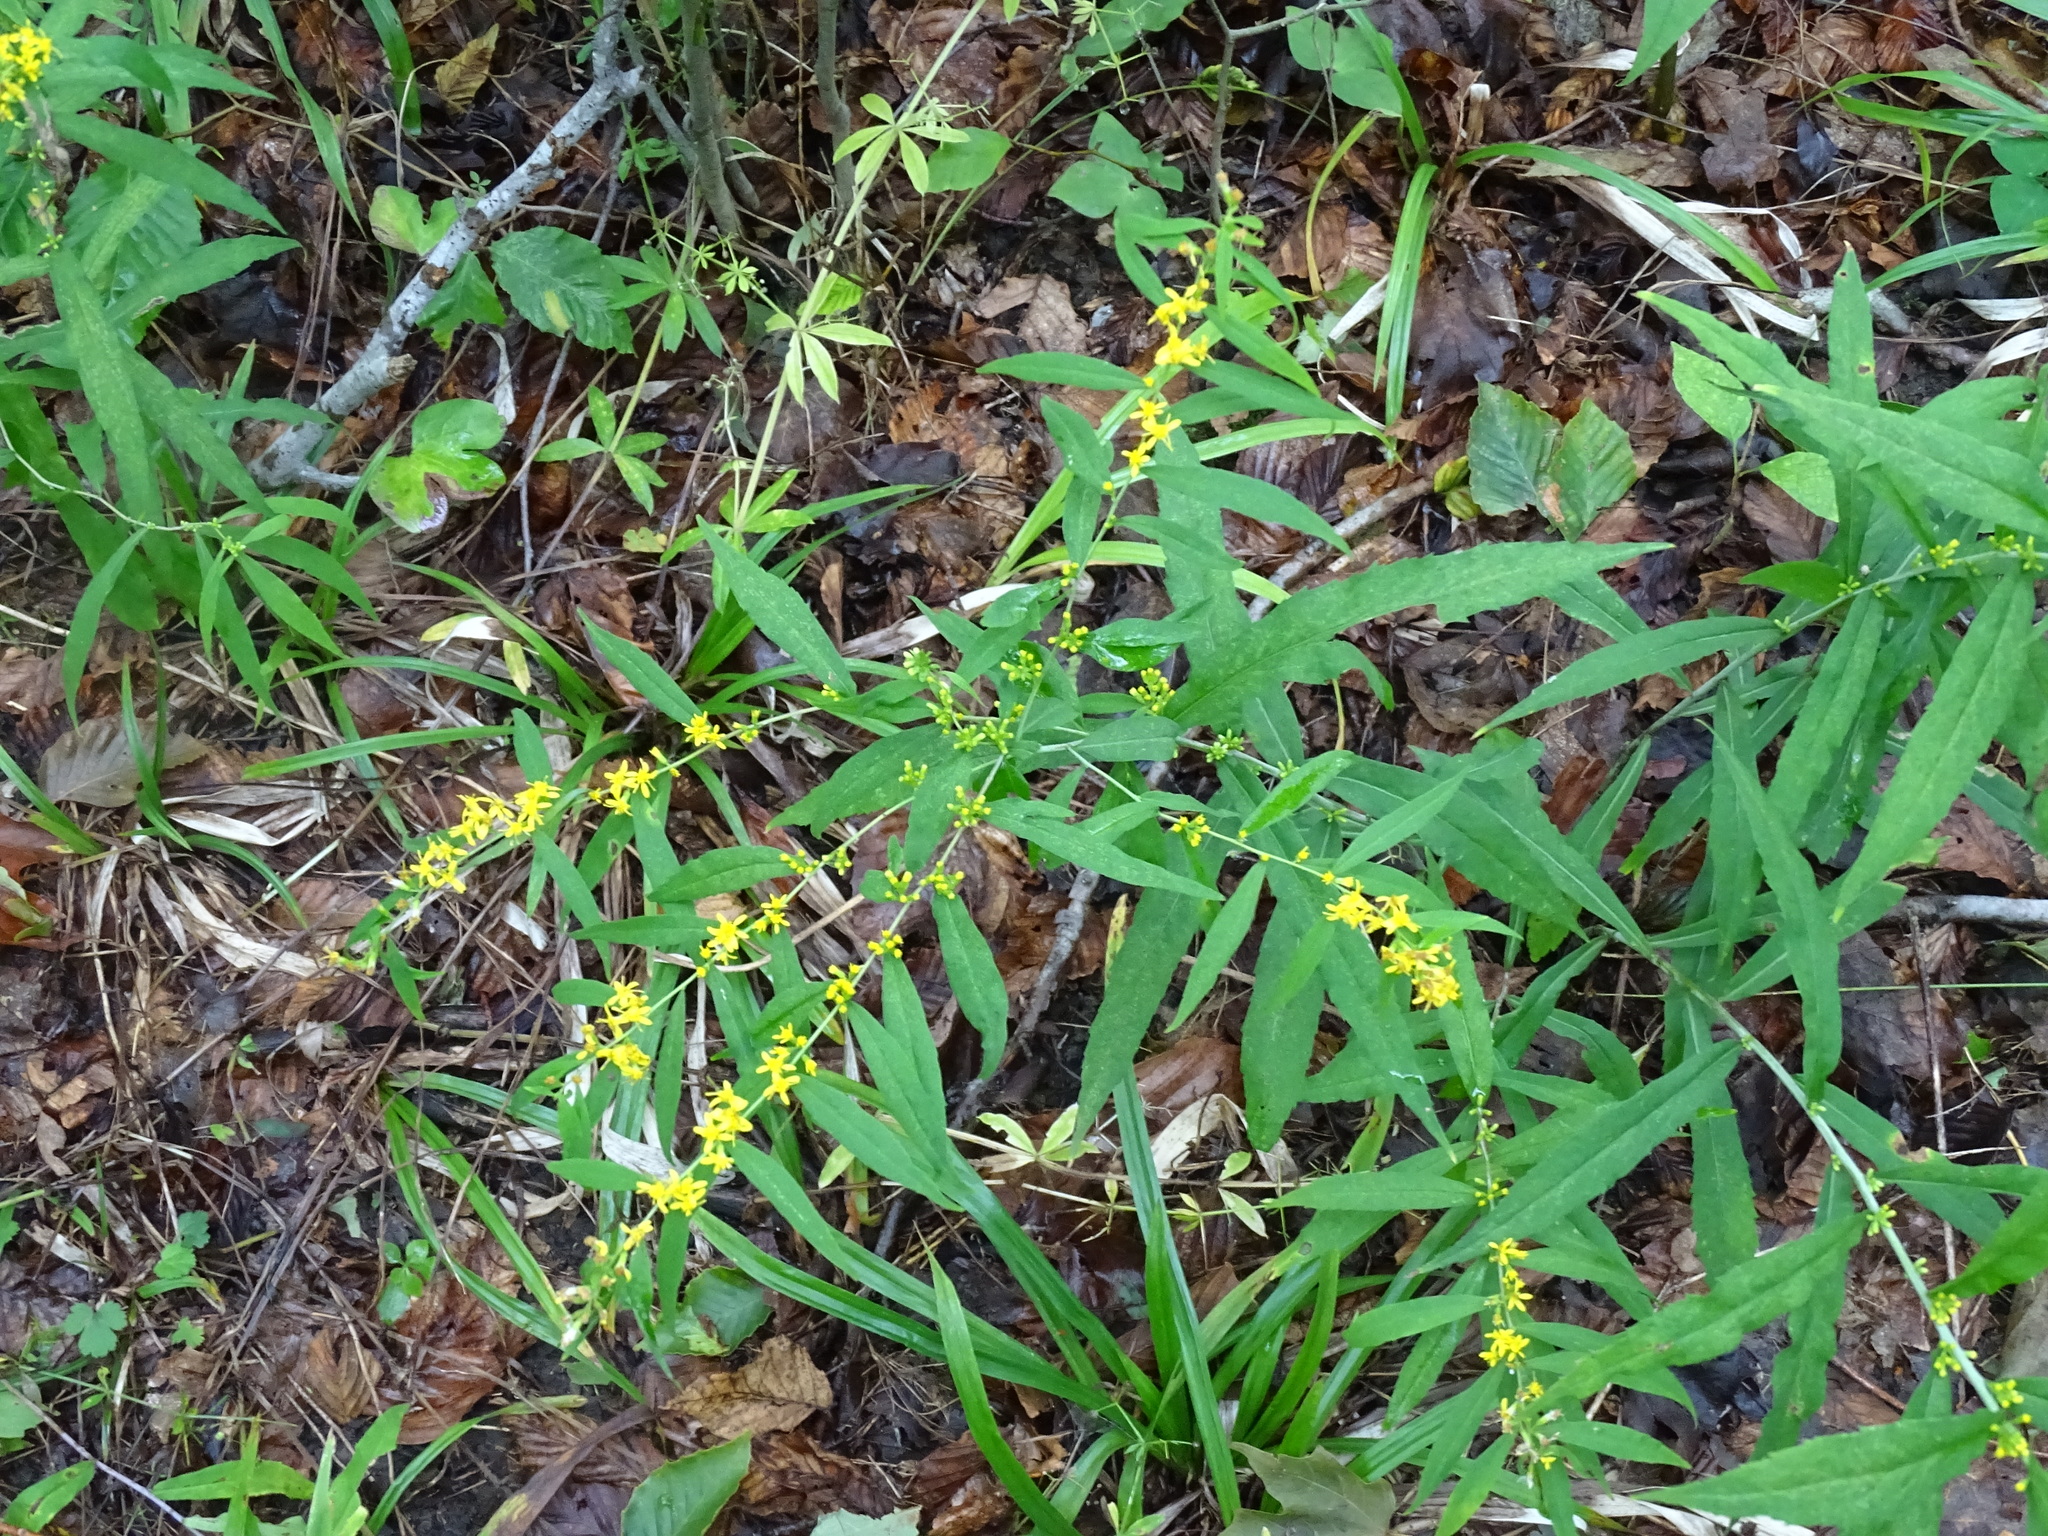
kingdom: Plantae
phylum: Tracheophyta
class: Magnoliopsida
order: Asterales
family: Asteraceae
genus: Solidago
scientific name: Solidago caesia
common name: Woodland goldenrod
